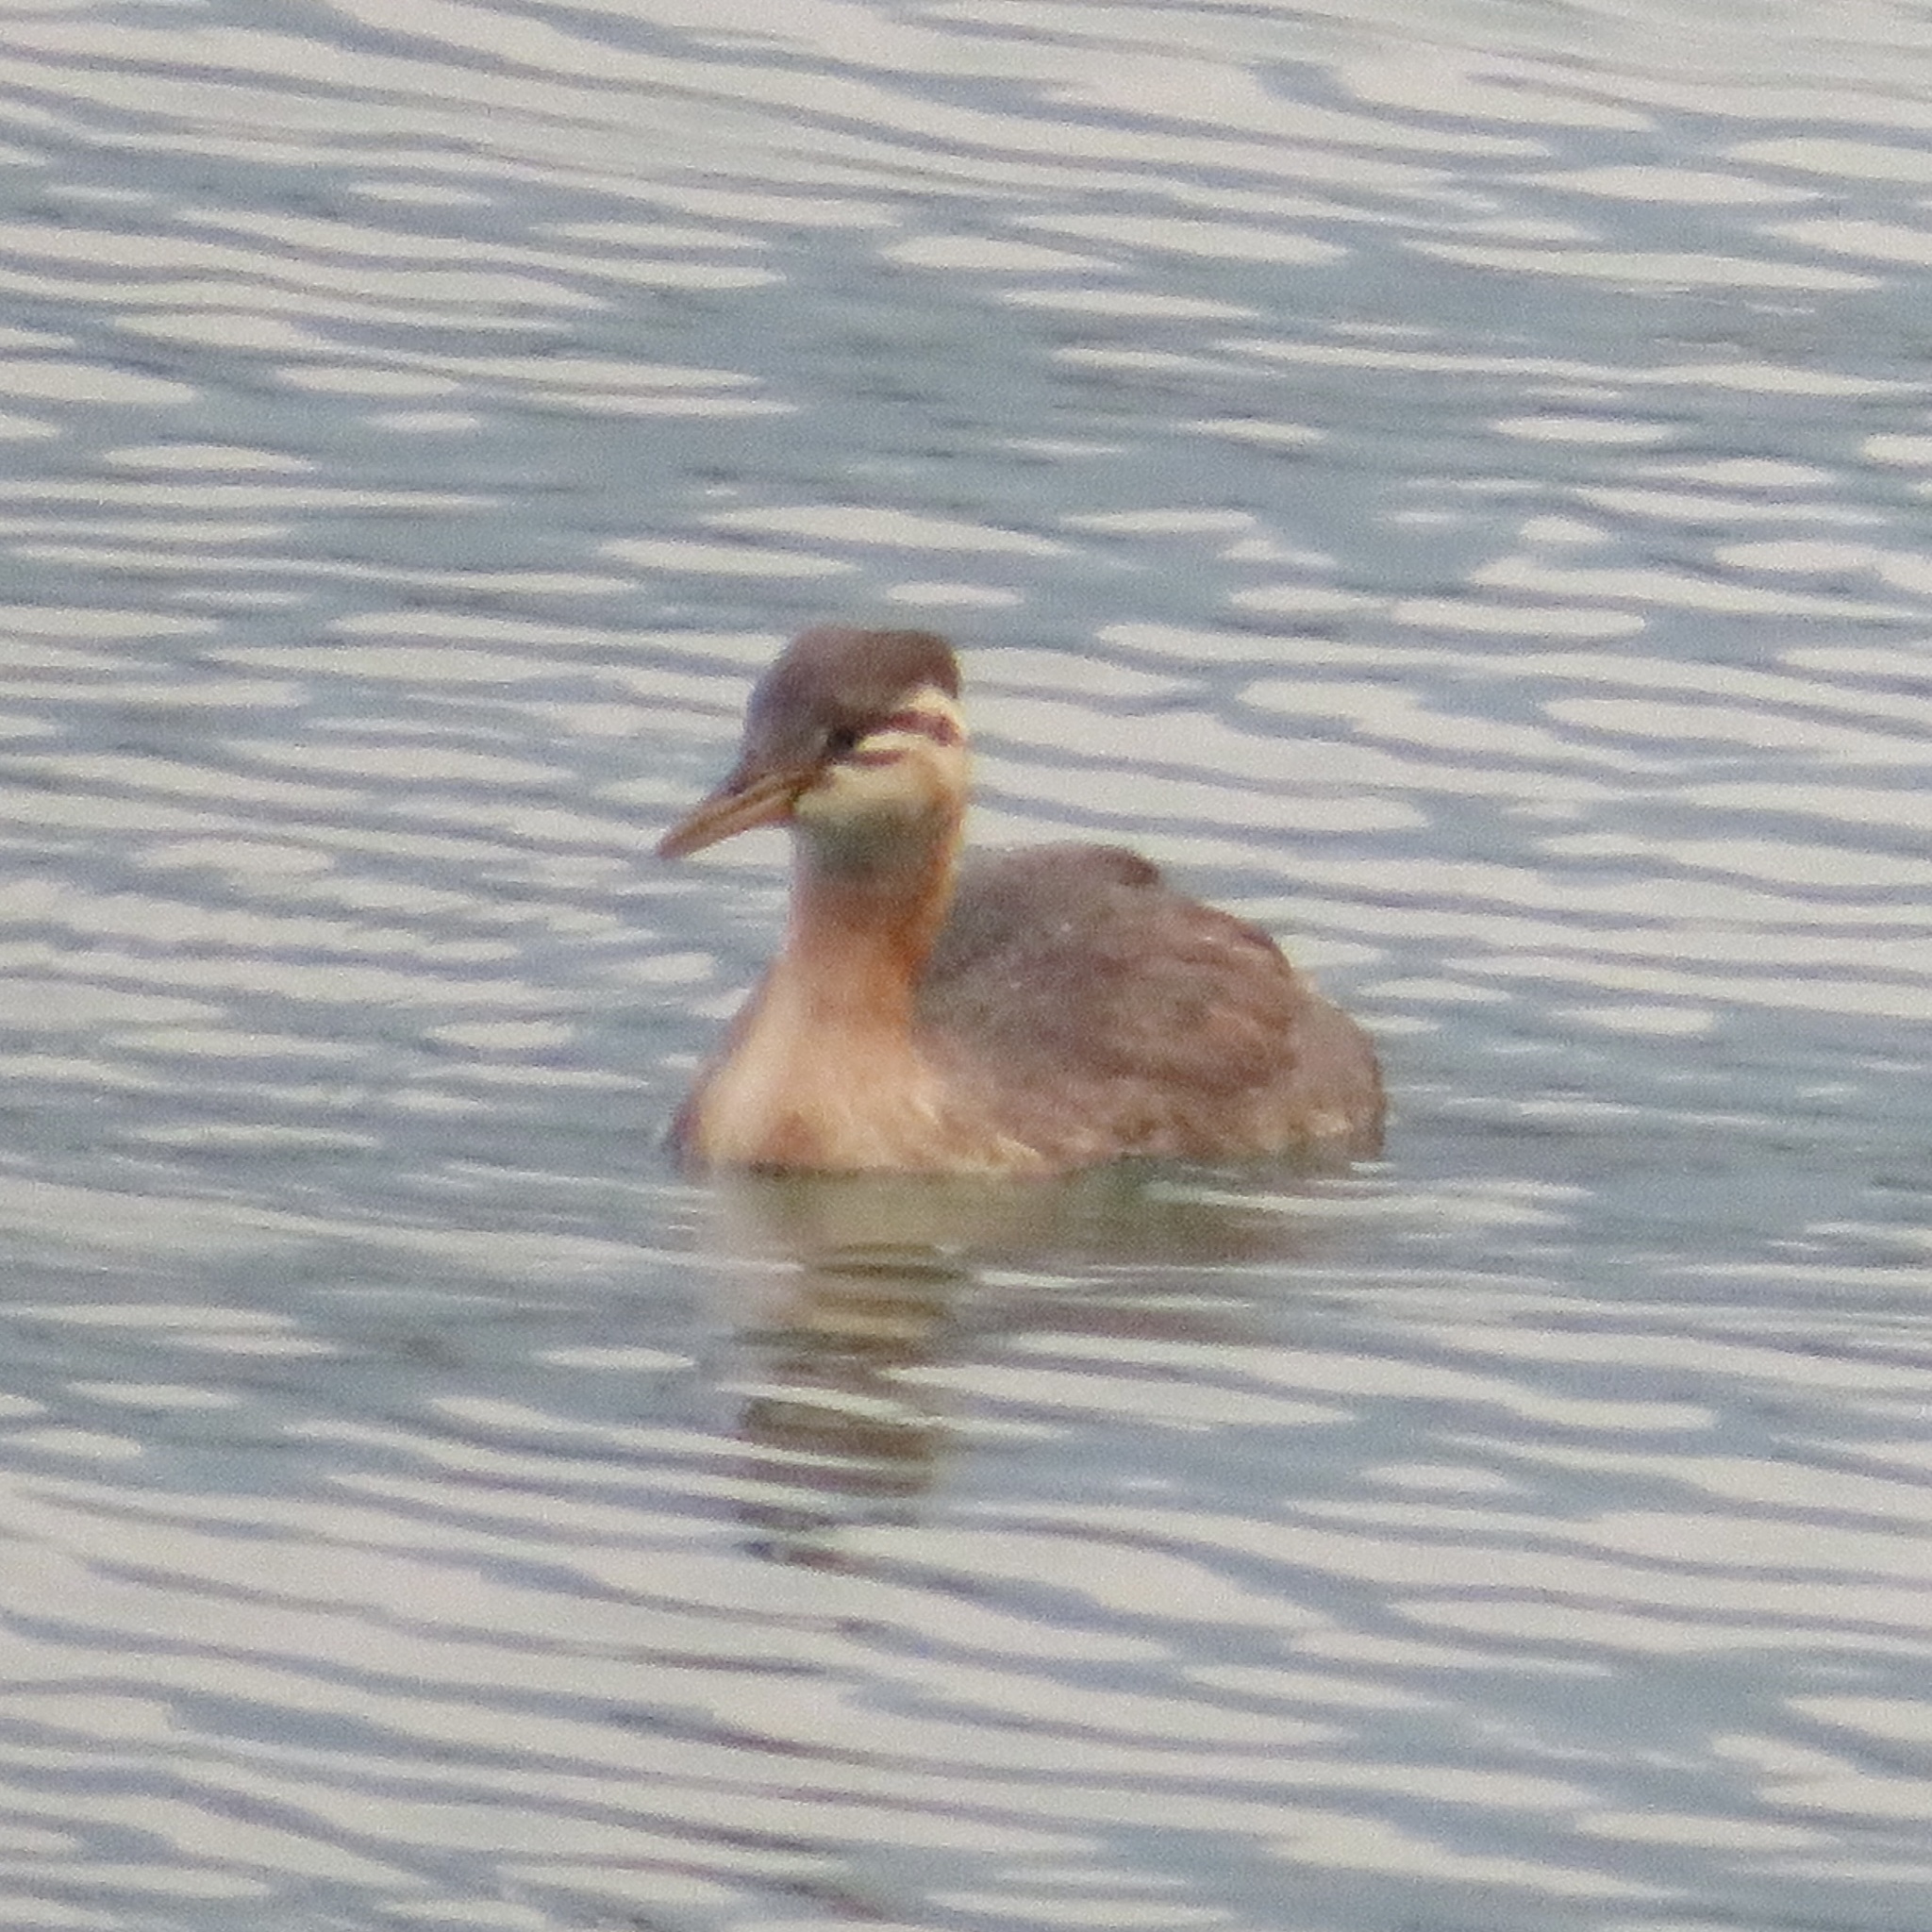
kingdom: Animalia
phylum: Chordata
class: Aves
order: Podicipediformes
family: Podicipedidae
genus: Podiceps
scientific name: Podiceps grisegena
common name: Red-necked grebe
